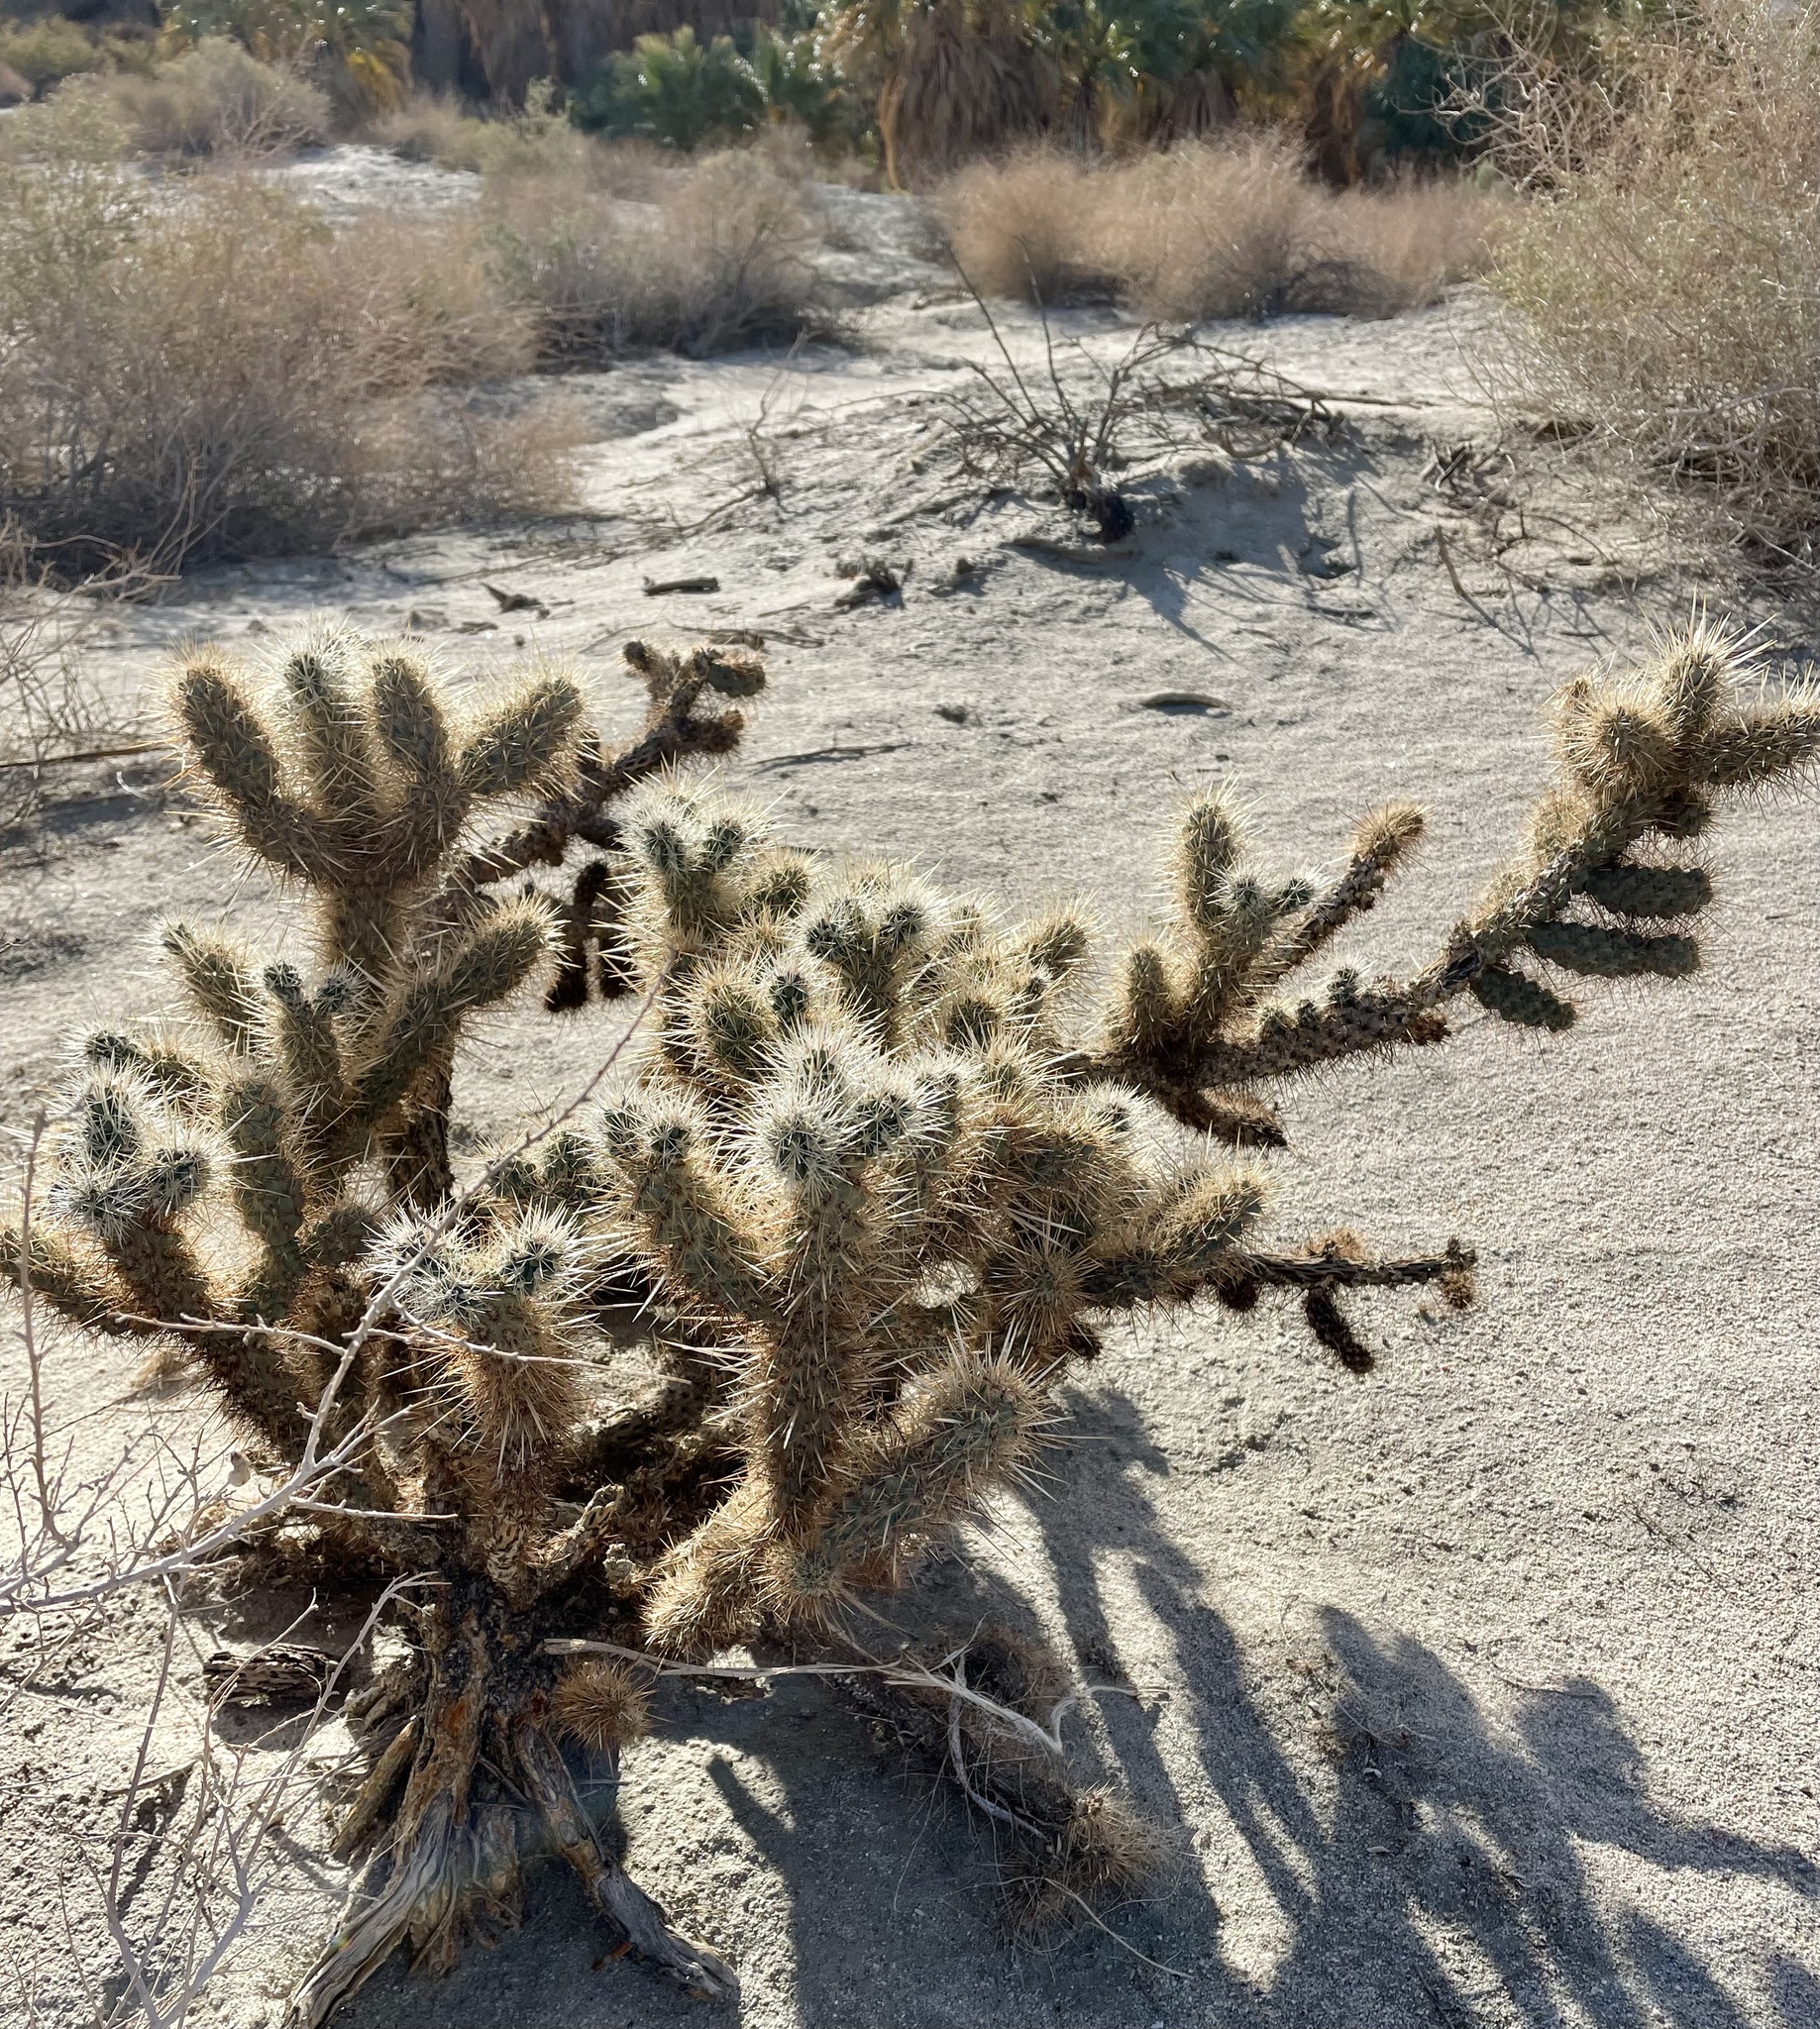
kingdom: Plantae
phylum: Tracheophyta
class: Magnoliopsida
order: Caryophyllales
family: Cactaceae
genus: Cylindropuntia
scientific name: Cylindropuntia echinocarpa
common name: Ground cholla
